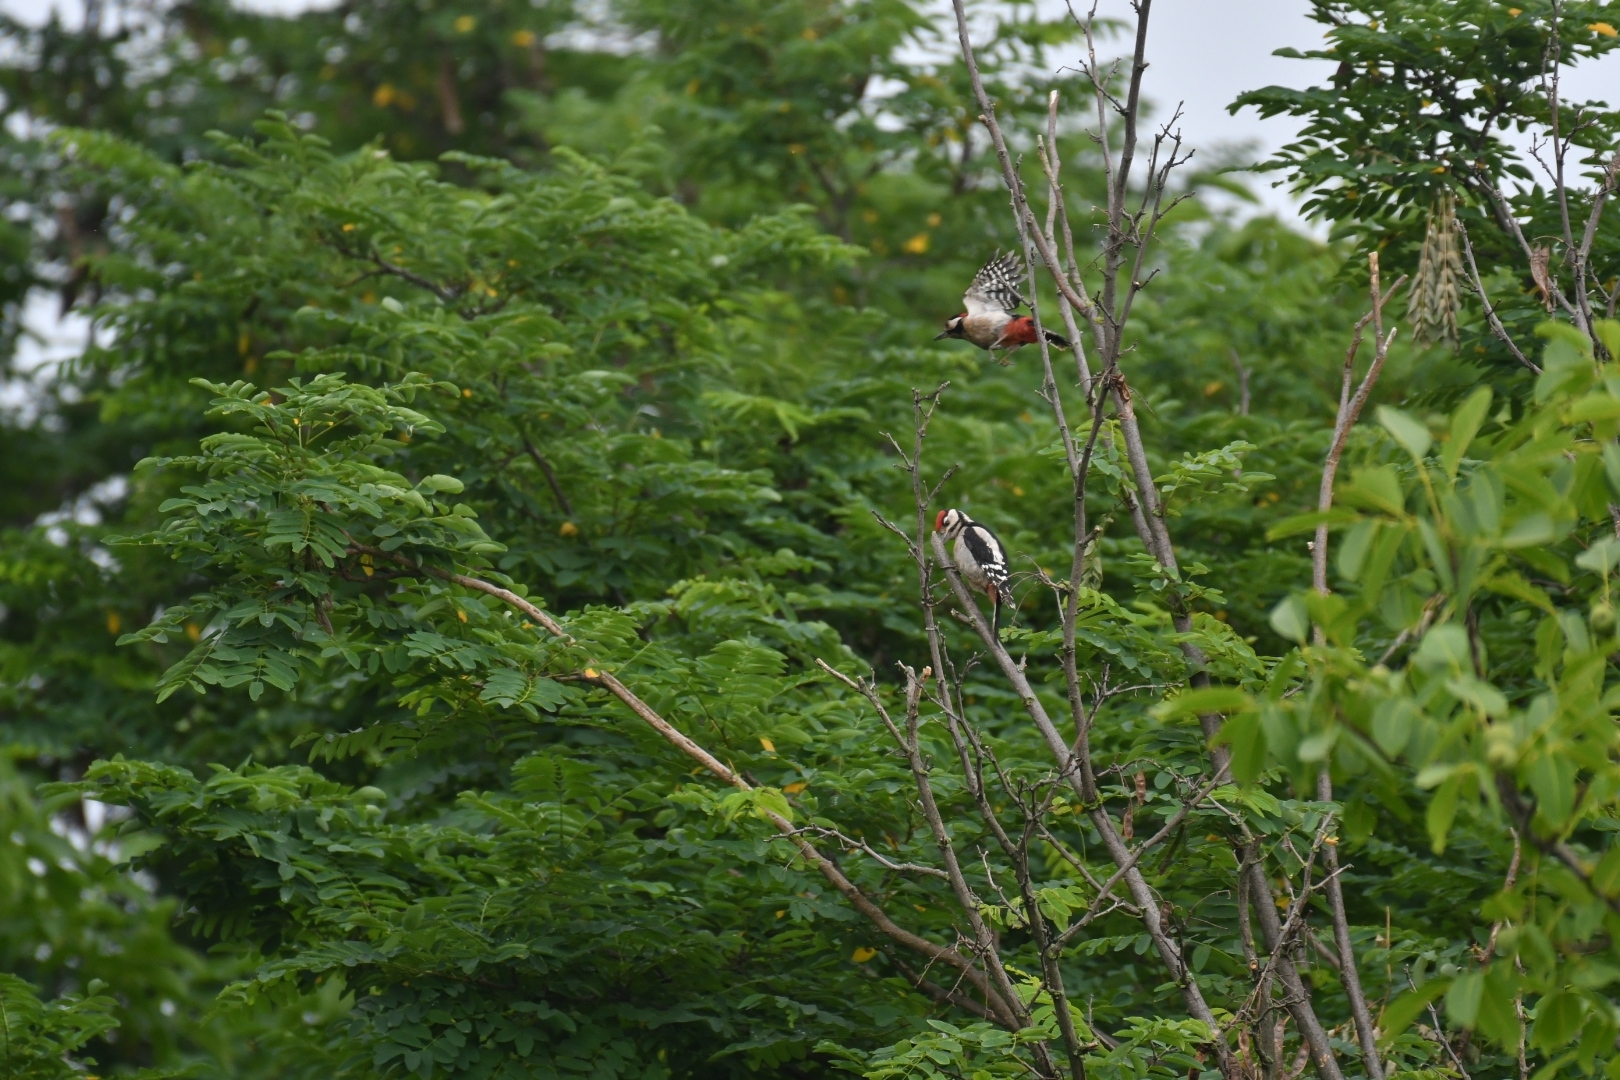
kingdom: Animalia
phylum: Chordata
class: Aves
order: Piciformes
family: Picidae
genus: Dendrocopos
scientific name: Dendrocopos major
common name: Great spotted woodpecker
